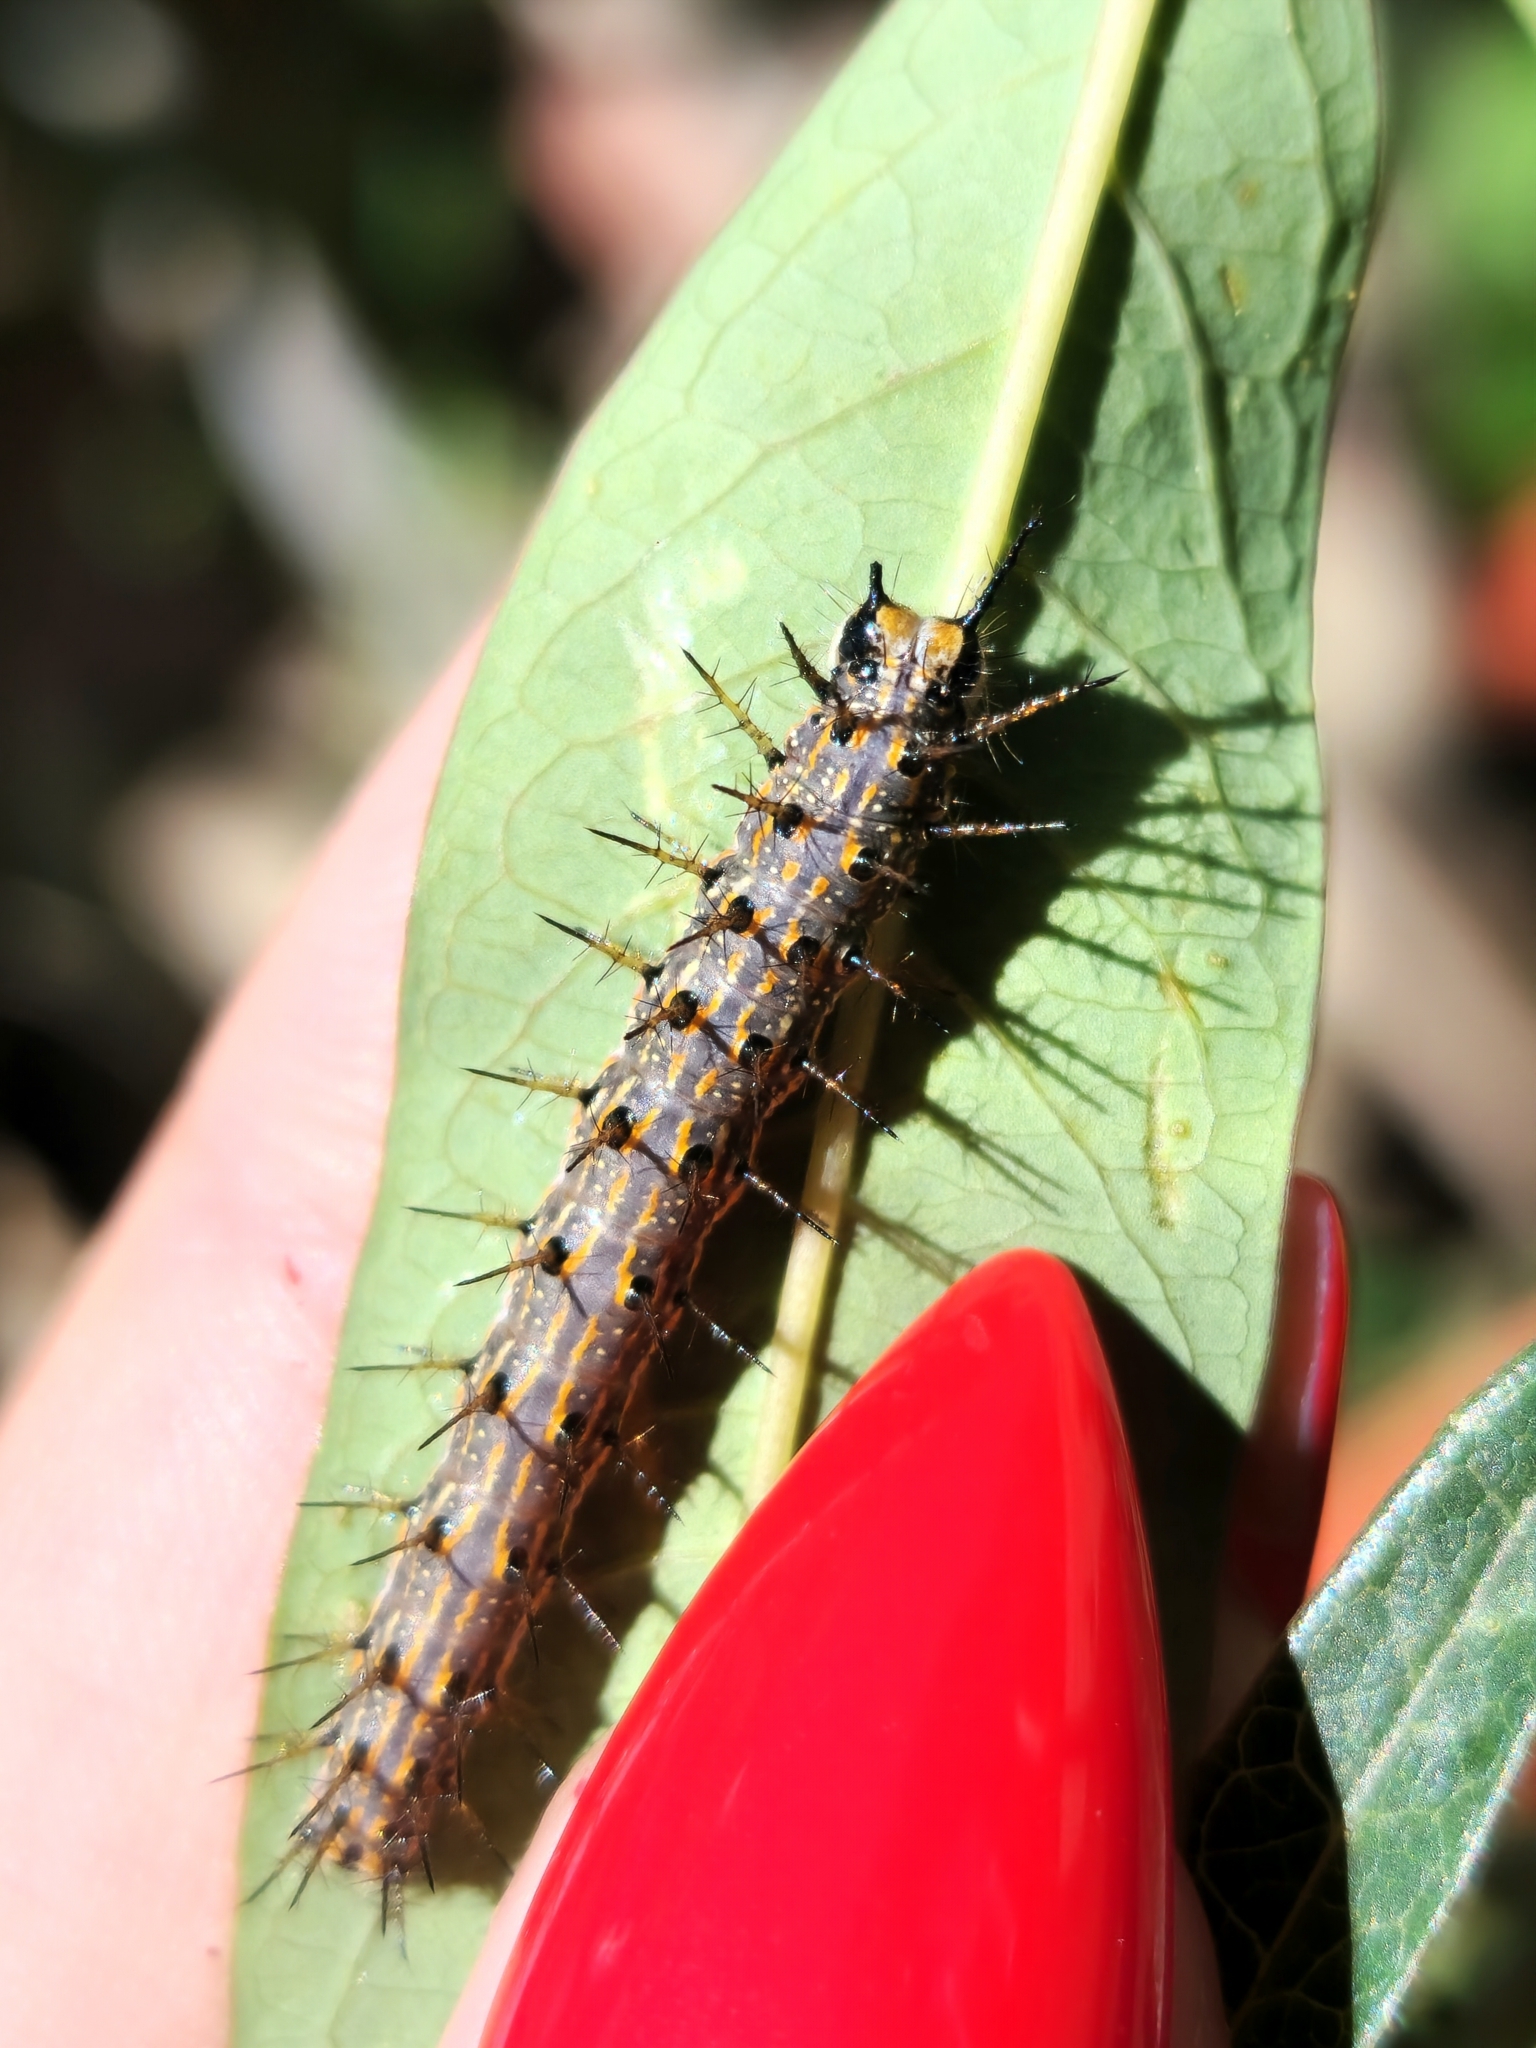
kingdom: Animalia
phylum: Arthropoda
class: Insecta
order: Lepidoptera
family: Nymphalidae
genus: Dione
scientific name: Dione vanillae
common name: Gulf fritillary
